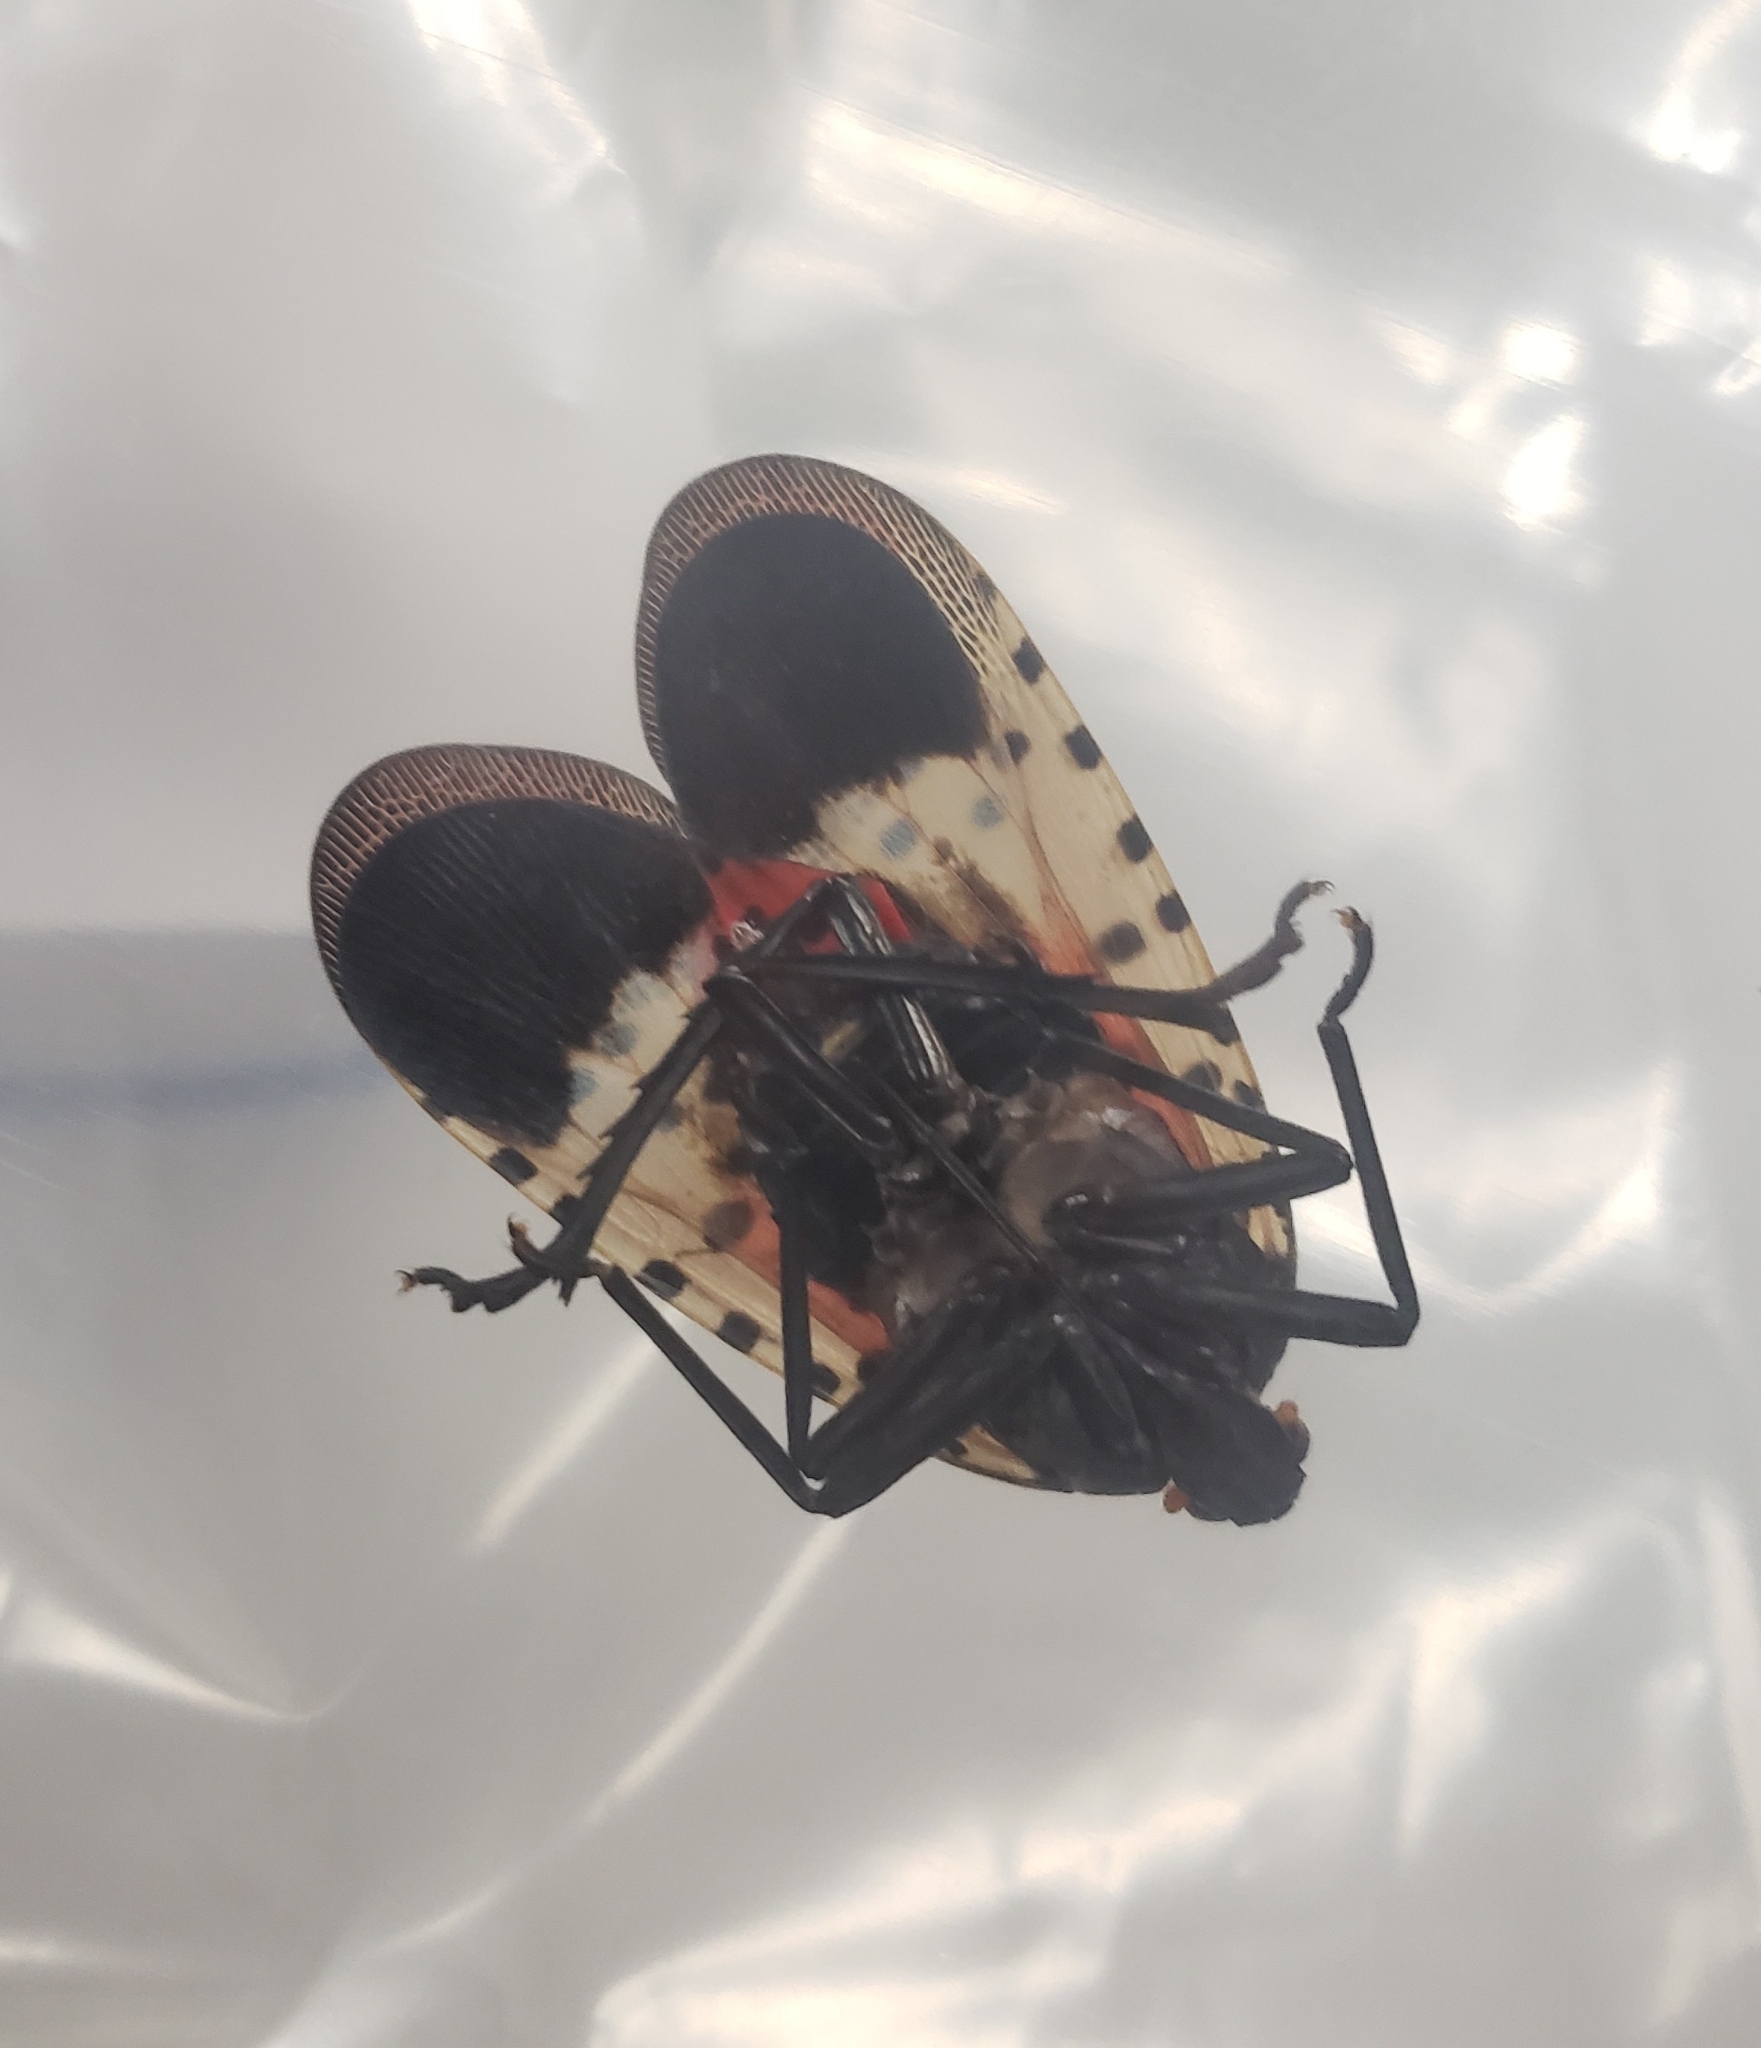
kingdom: Animalia
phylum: Arthropoda
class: Insecta
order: Hemiptera
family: Fulgoridae
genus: Lycorma
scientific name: Lycorma delicatula
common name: Spotted lanternfly
